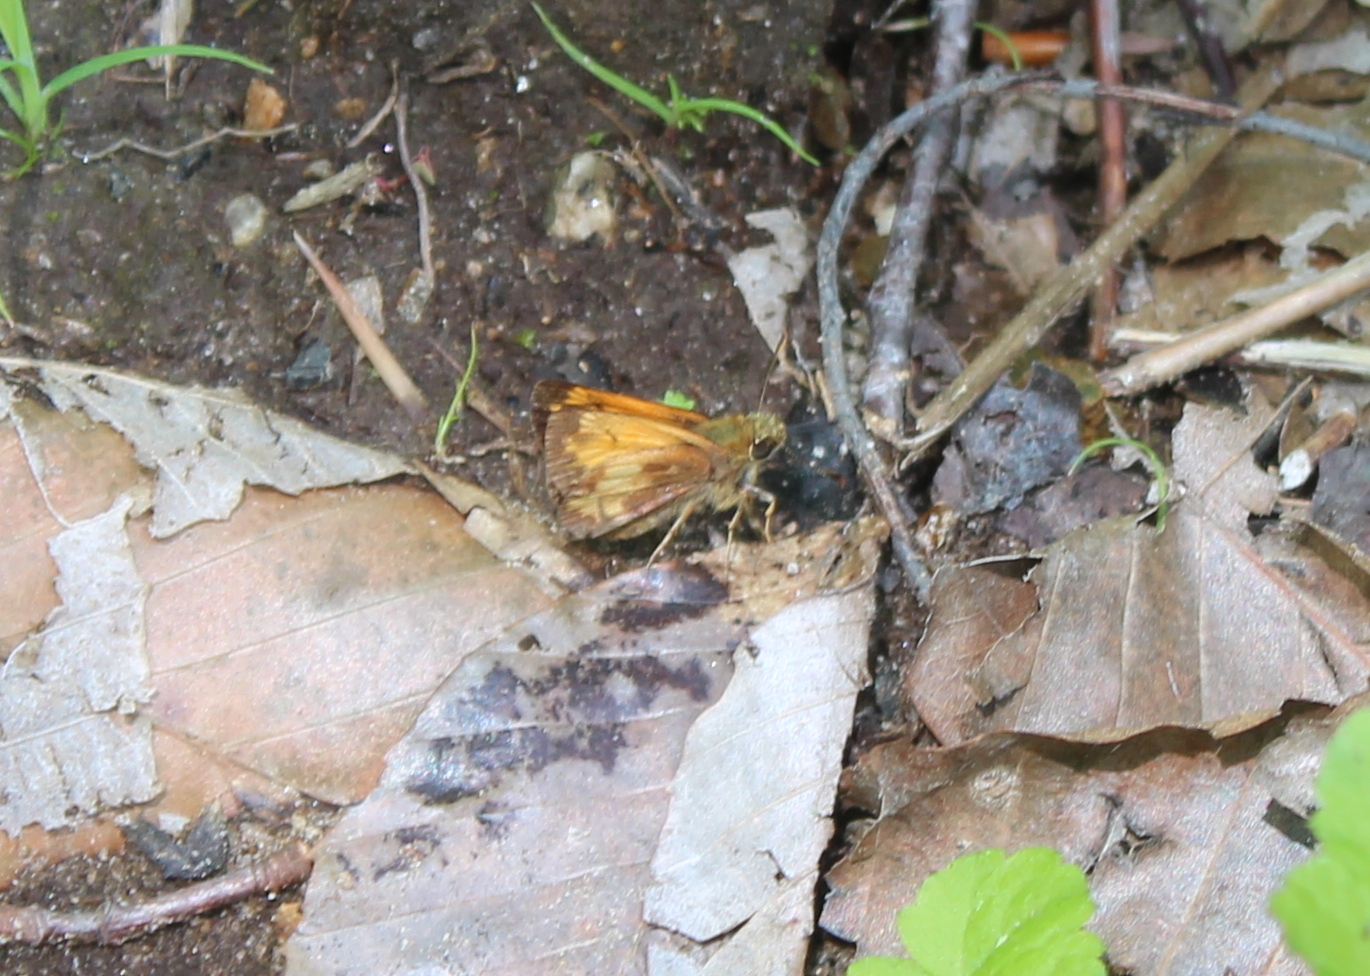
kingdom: Animalia
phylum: Arthropoda
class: Insecta
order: Lepidoptera
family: Hesperiidae
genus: Lon
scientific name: Lon hobomok
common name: Hobomok skipper
